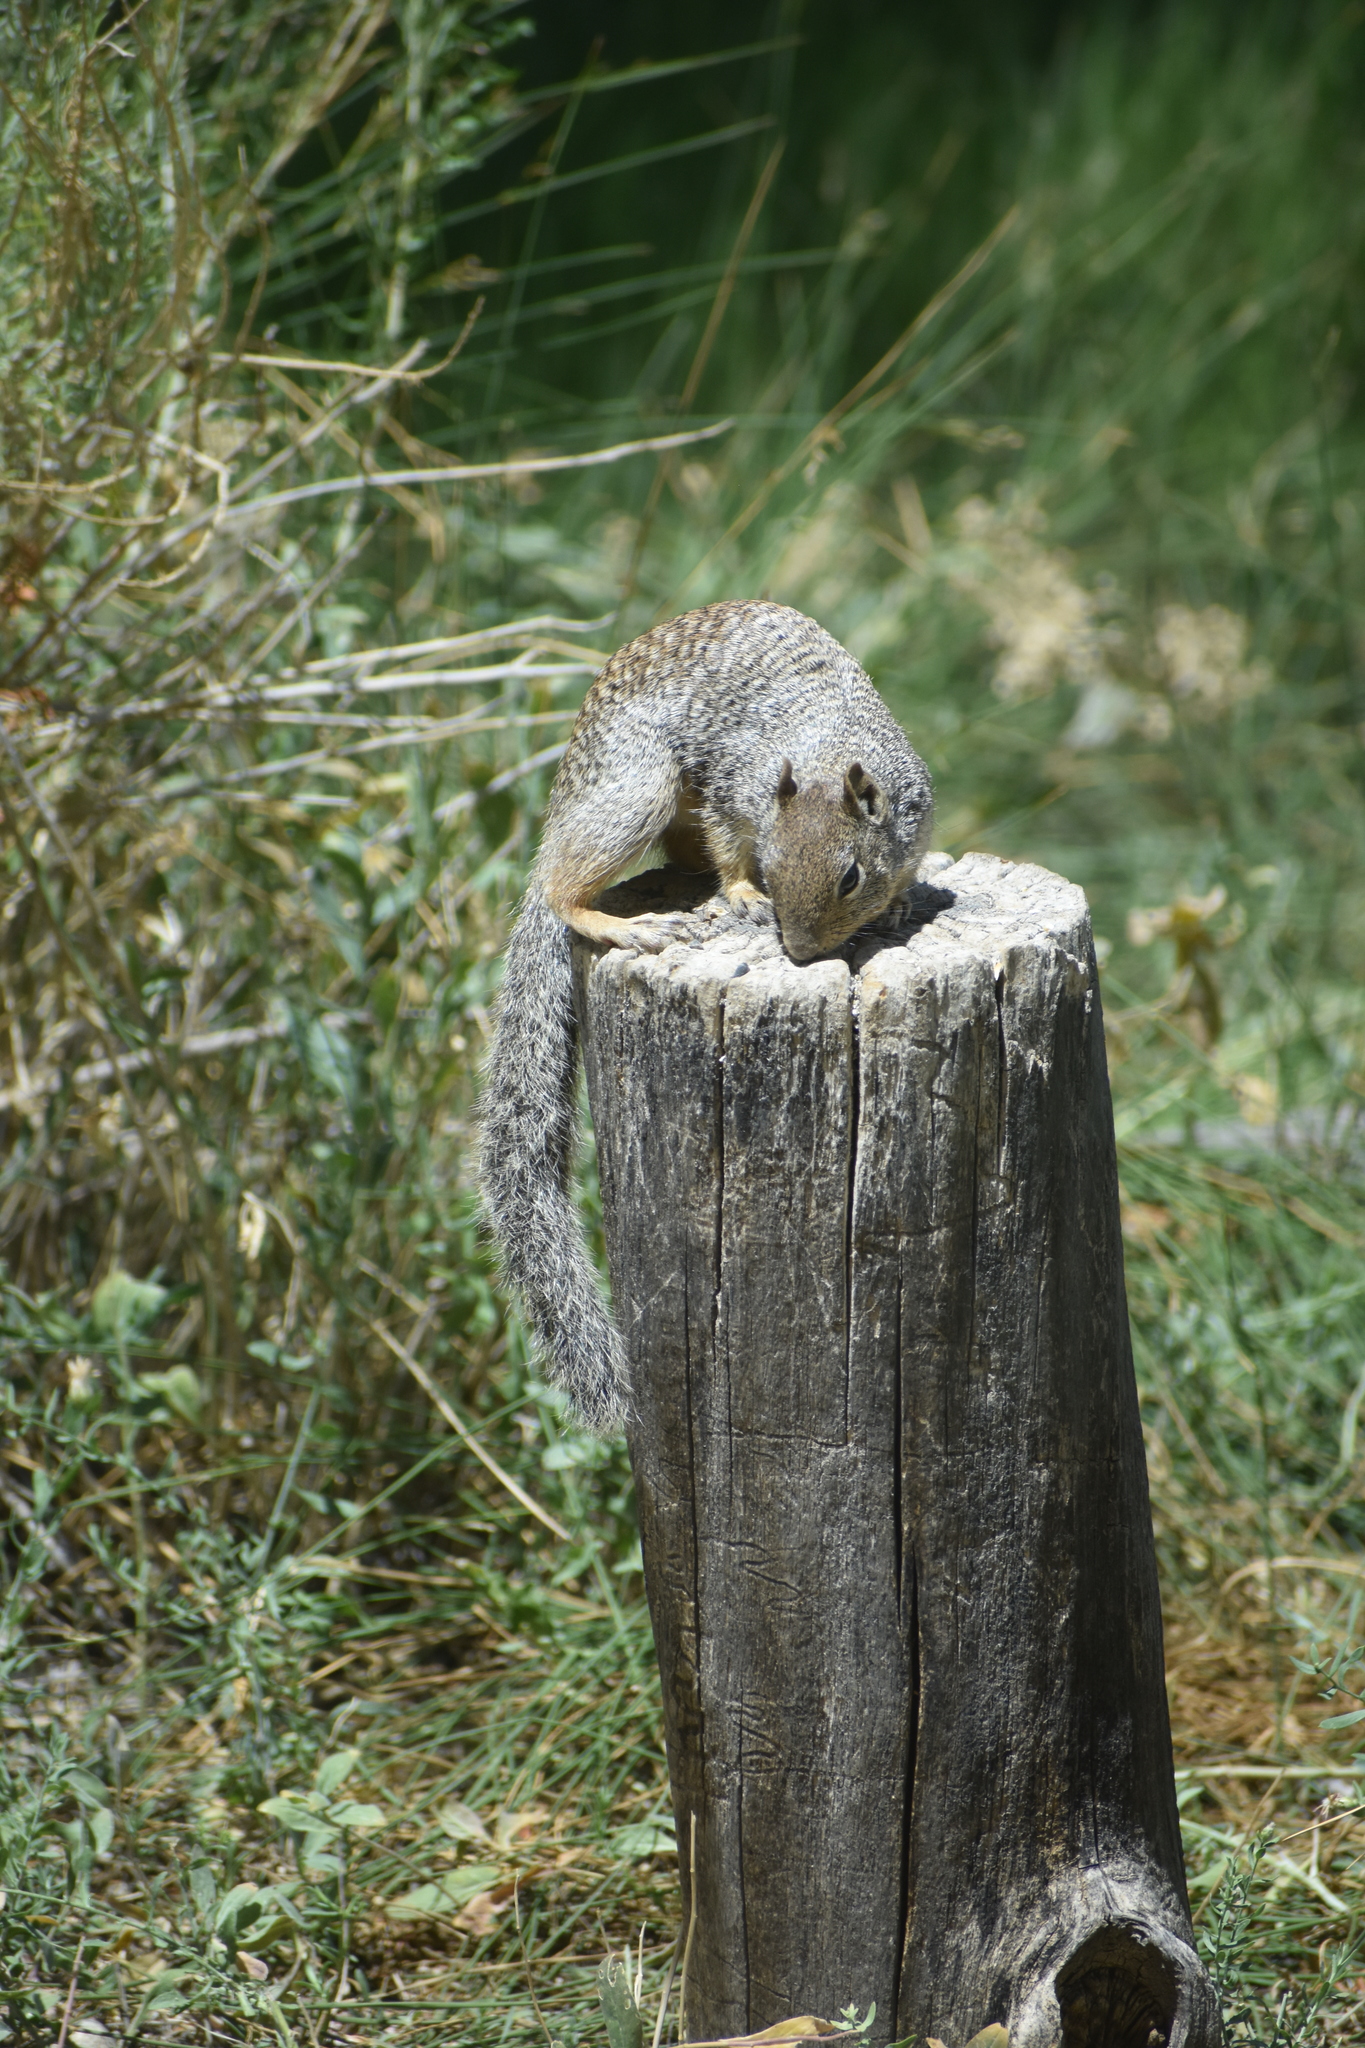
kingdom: Animalia
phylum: Chordata
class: Mammalia
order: Rodentia
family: Sciuridae
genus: Otospermophilus
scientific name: Otospermophilus variegatus
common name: Rock squirrel
